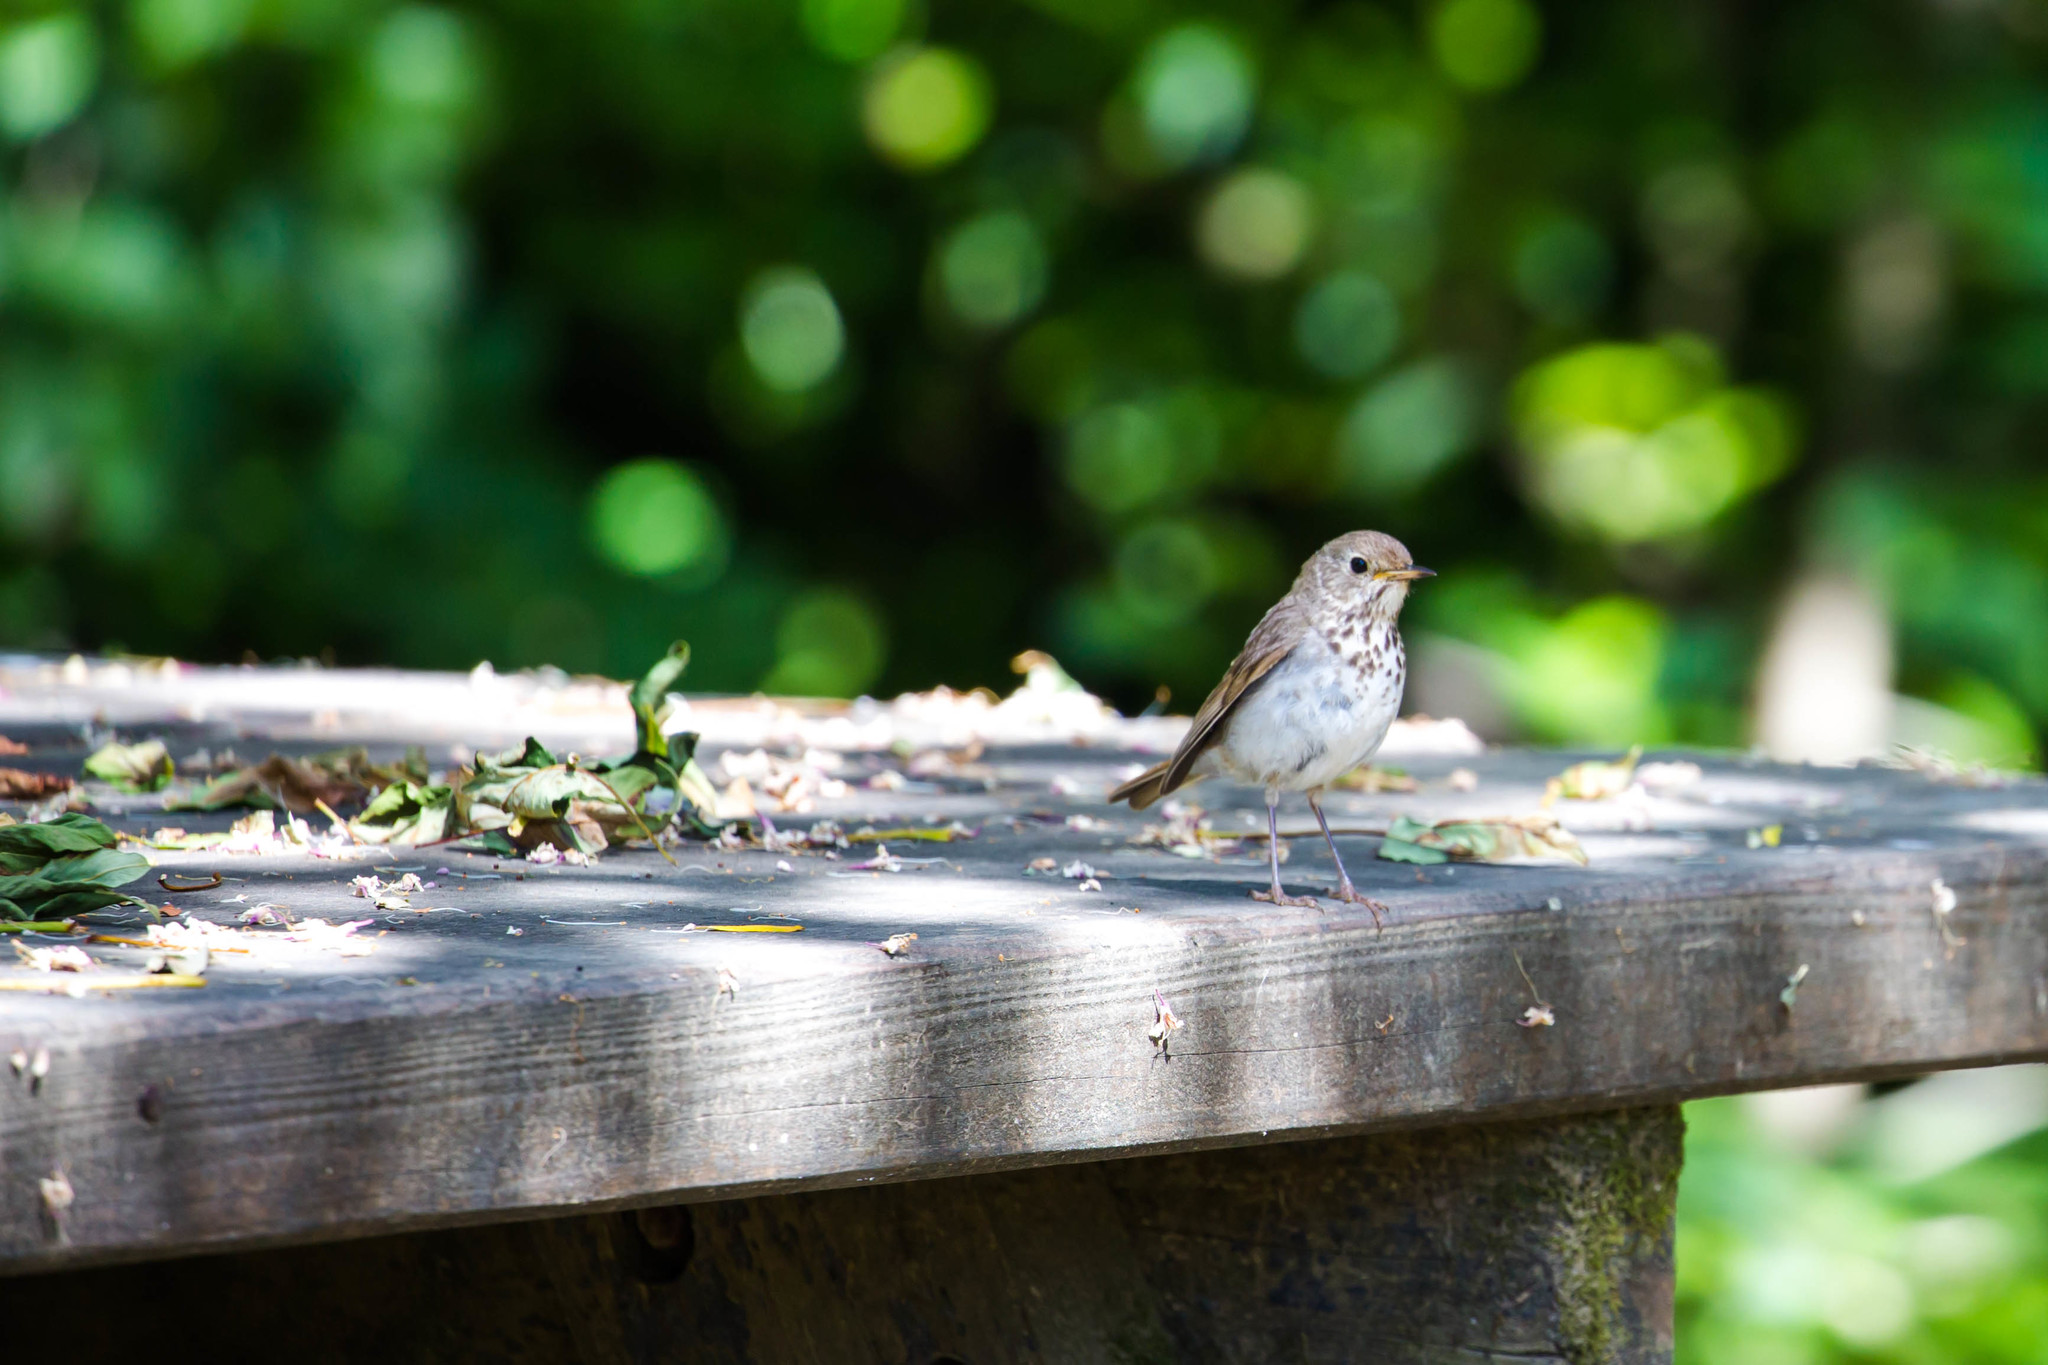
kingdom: Animalia
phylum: Chordata
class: Aves
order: Passeriformes
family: Turdidae
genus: Catharus
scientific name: Catharus guttatus
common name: Hermit thrush
